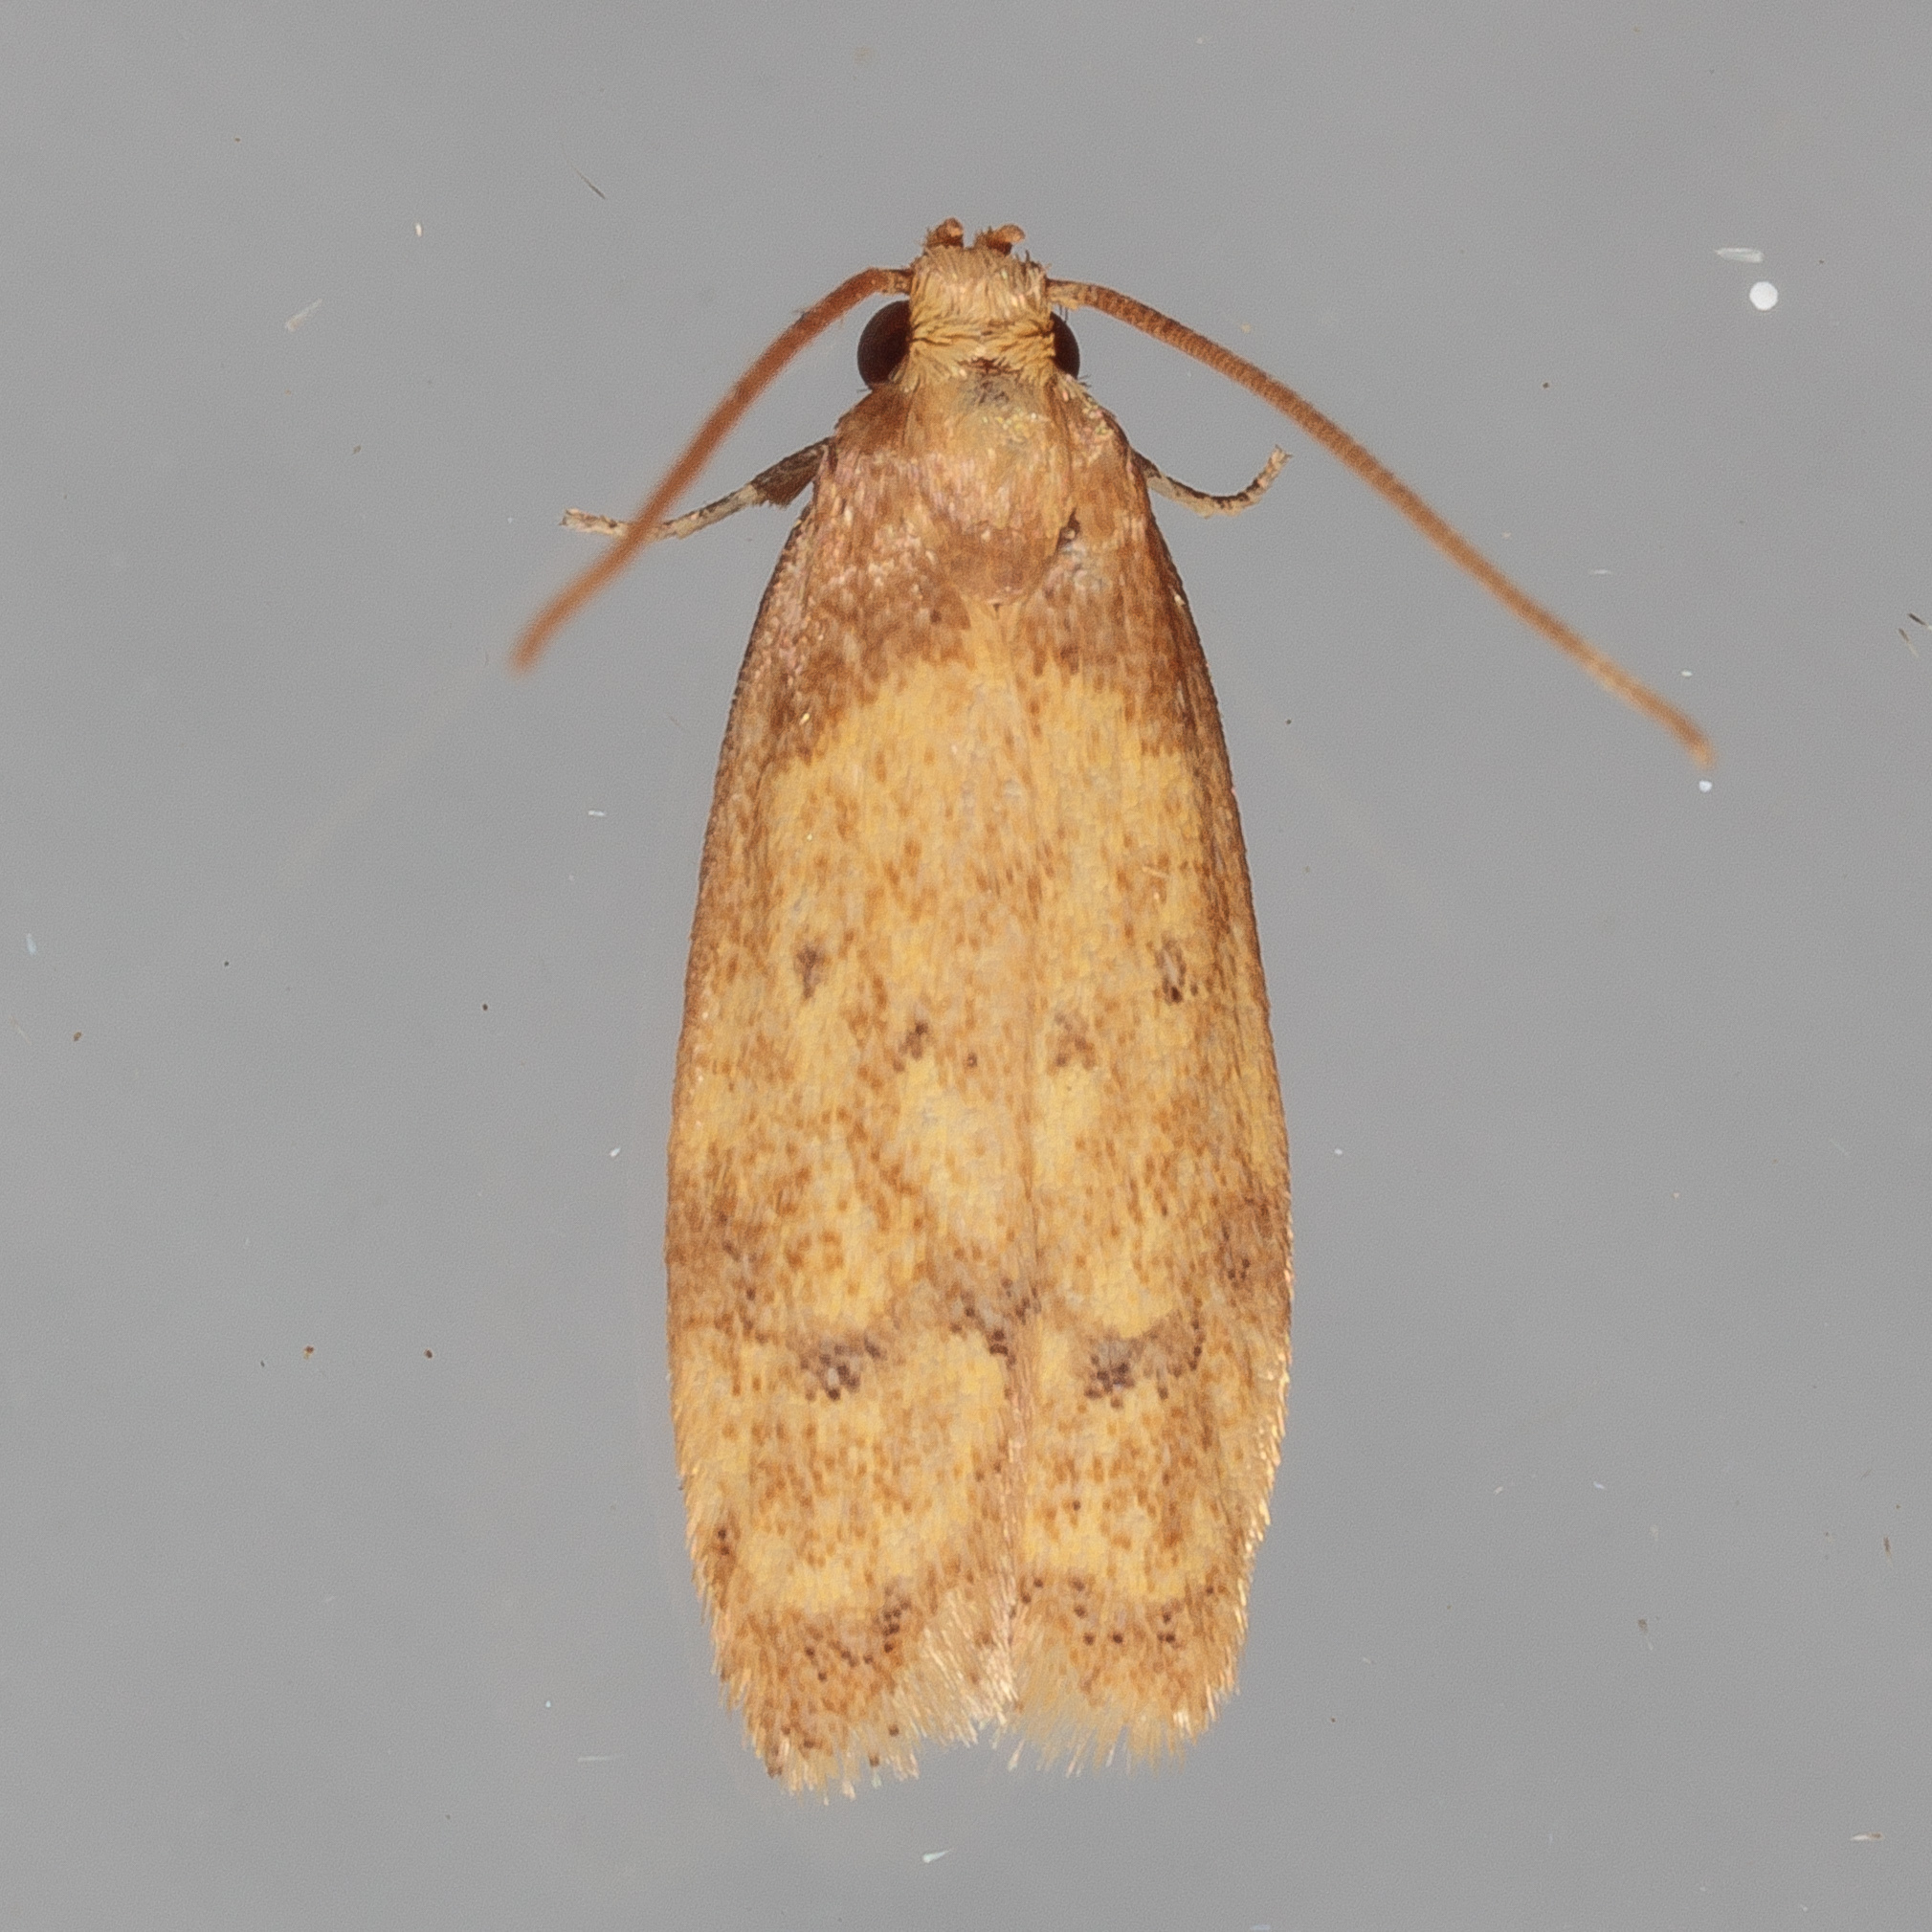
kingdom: Animalia
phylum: Arthropoda
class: Insecta
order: Lepidoptera
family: Autostichidae
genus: Gerdana
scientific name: Gerdana caritella
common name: Gerdana moth
